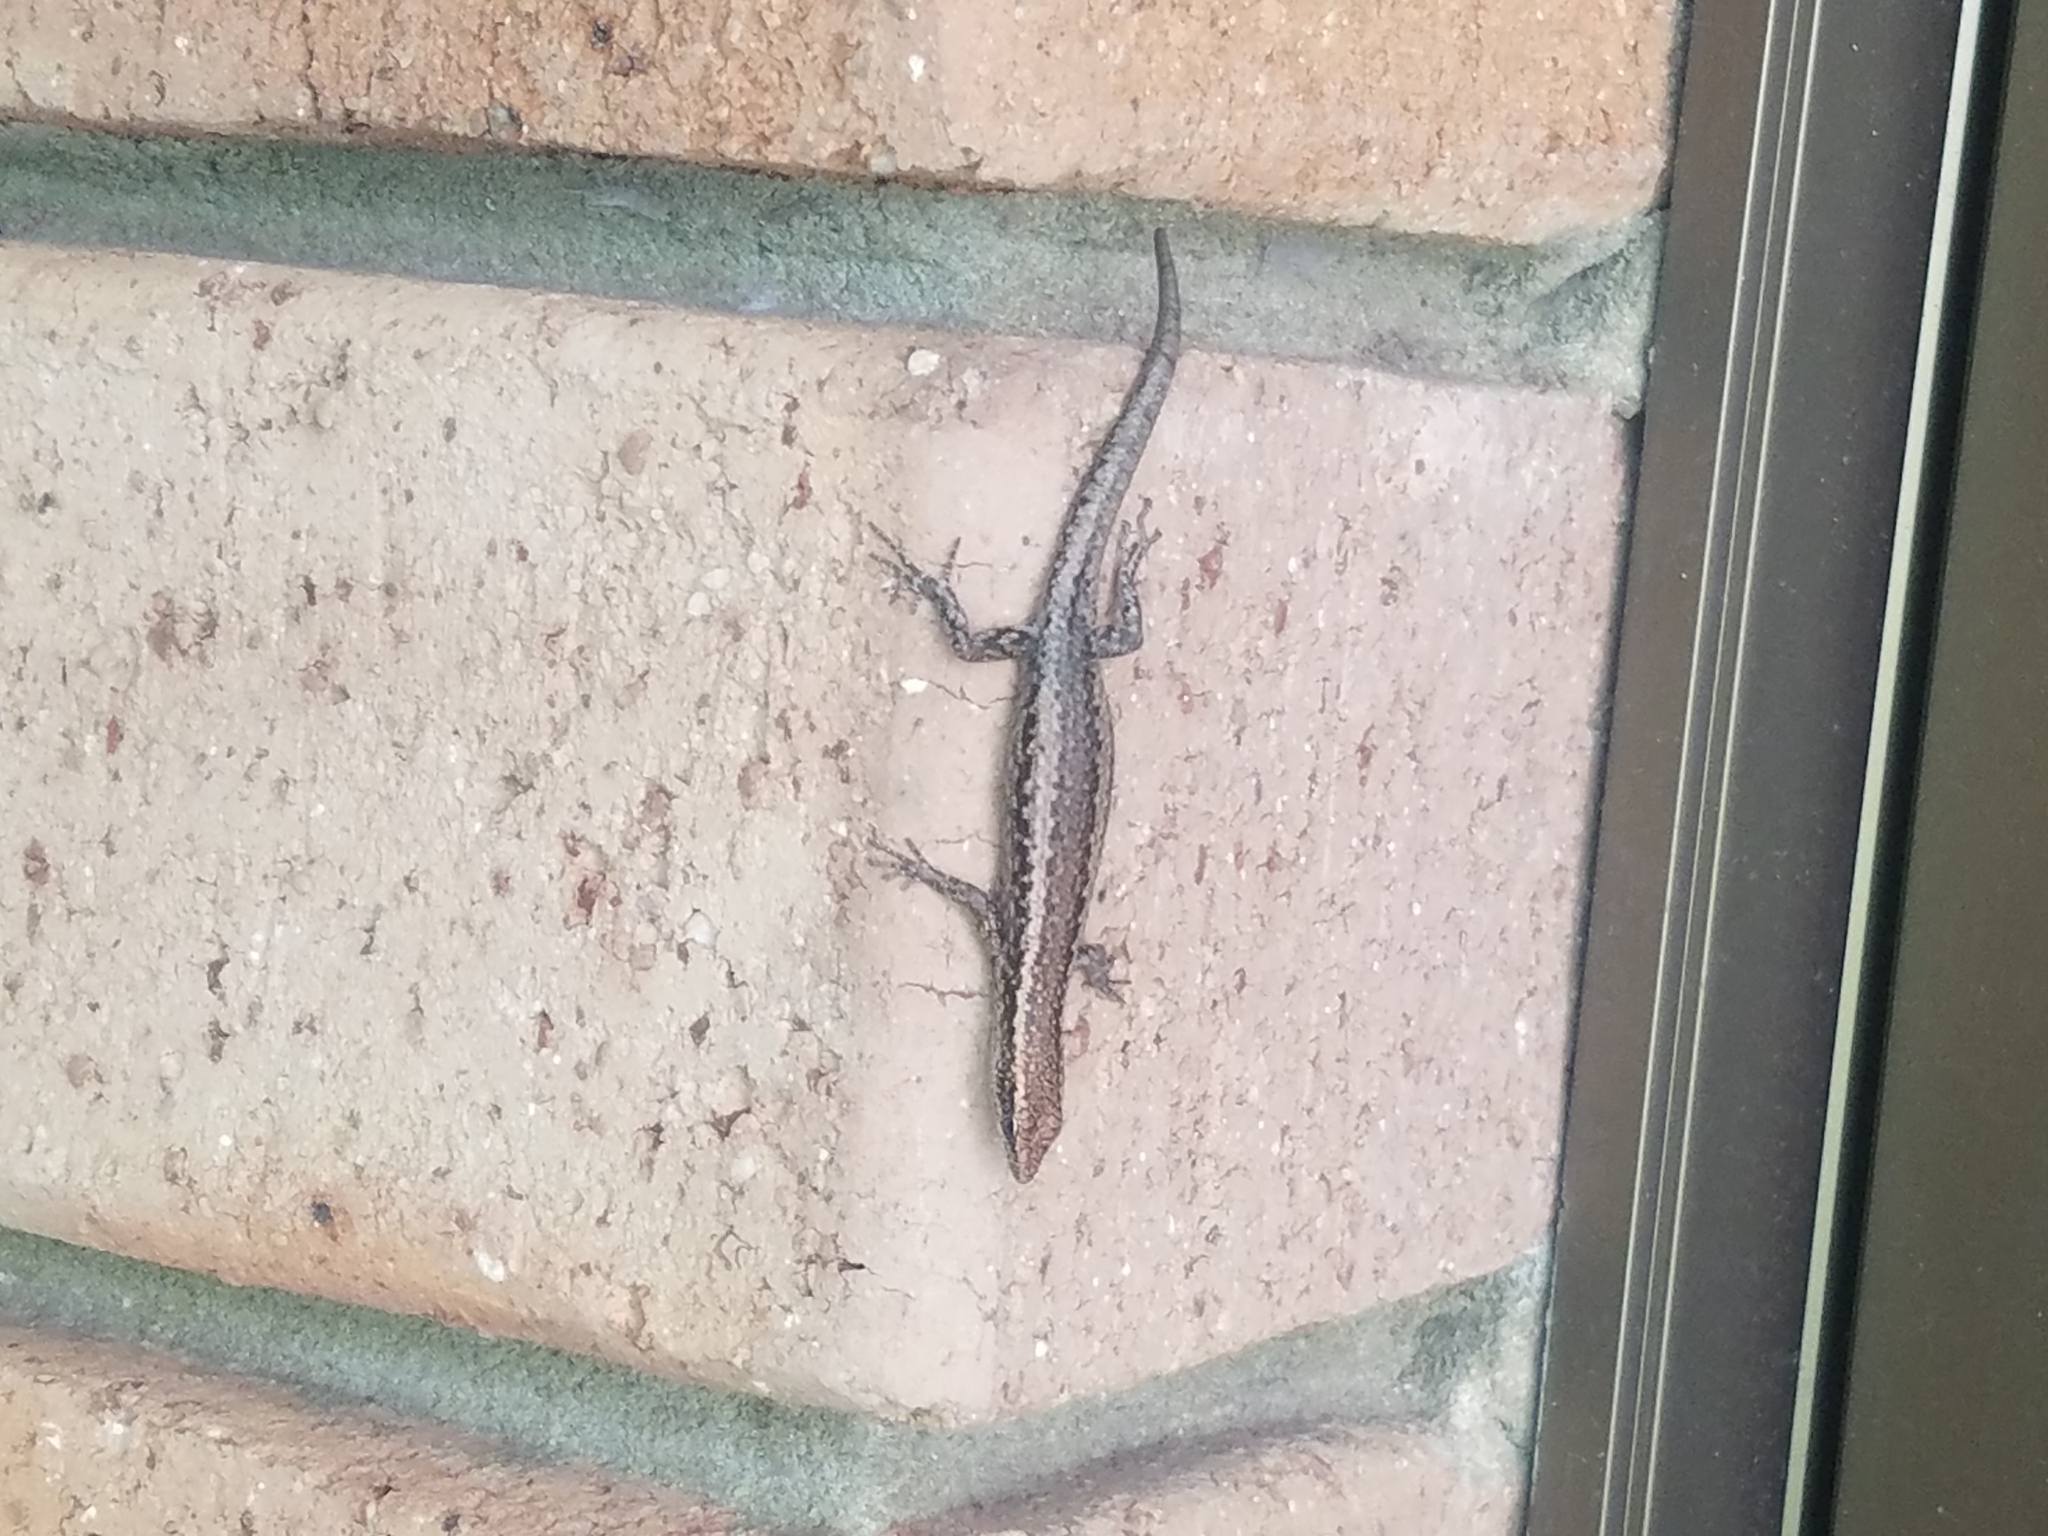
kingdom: Animalia
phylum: Chordata
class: Squamata
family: Scincidae
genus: Cryptoblepharus
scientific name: Cryptoblepharus buchananii
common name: Buchanan's snake-eyed skink
